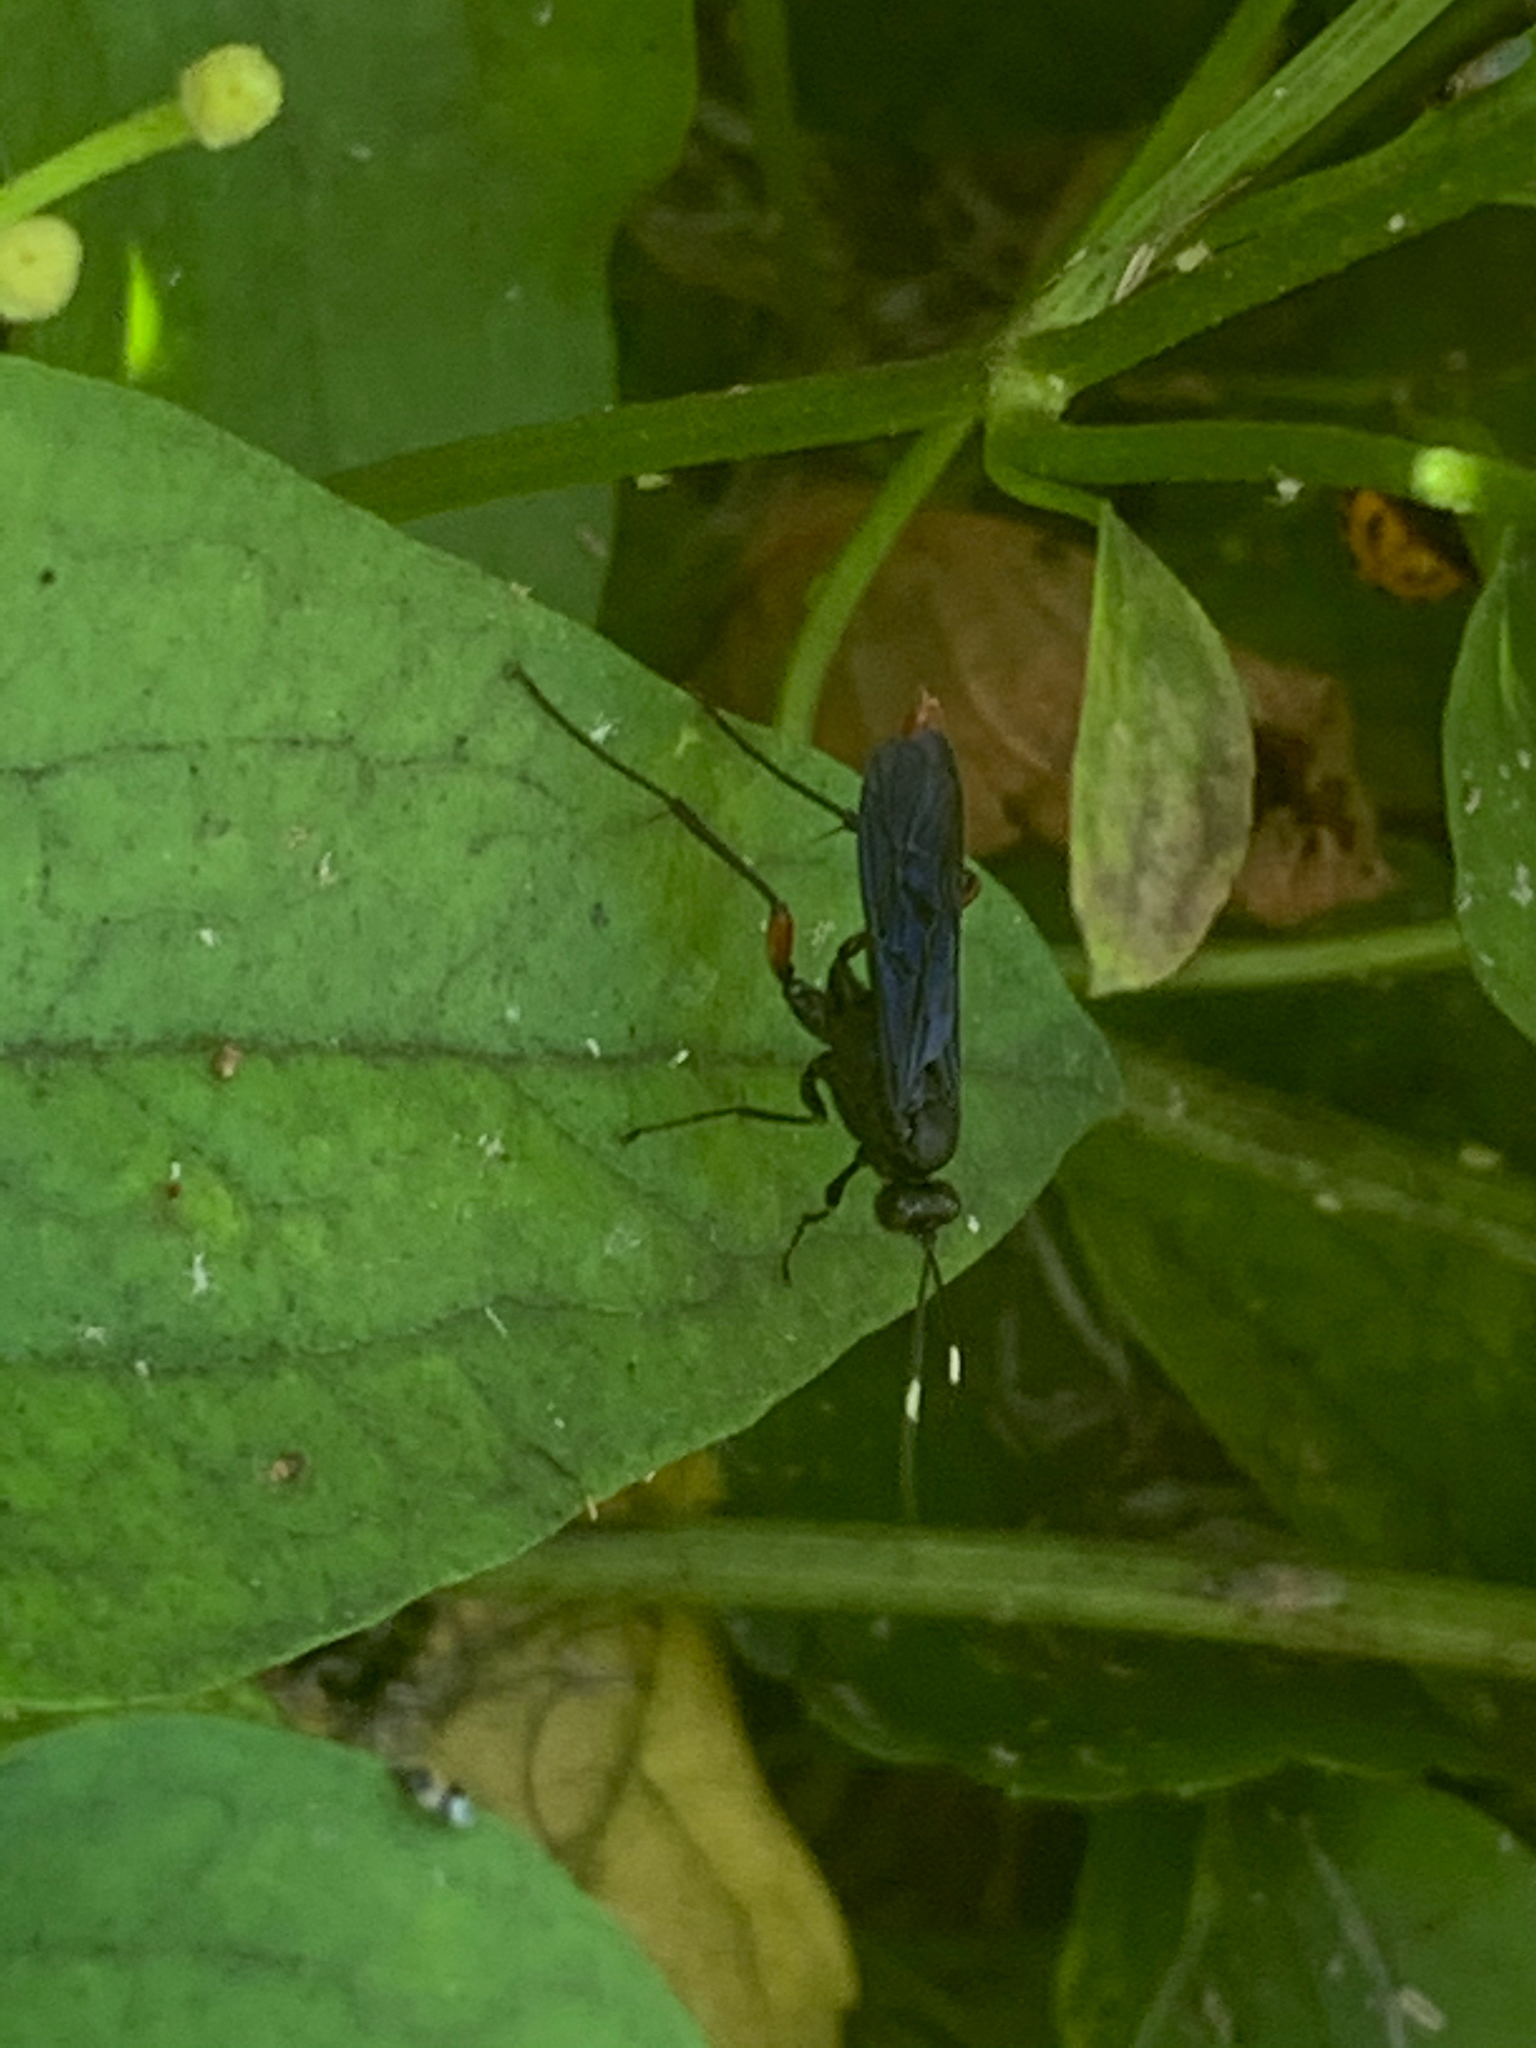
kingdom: Animalia
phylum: Arthropoda
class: Insecta
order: Hymenoptera
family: Ichneumonidae
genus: Limonethe
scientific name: Limonethe maurator
